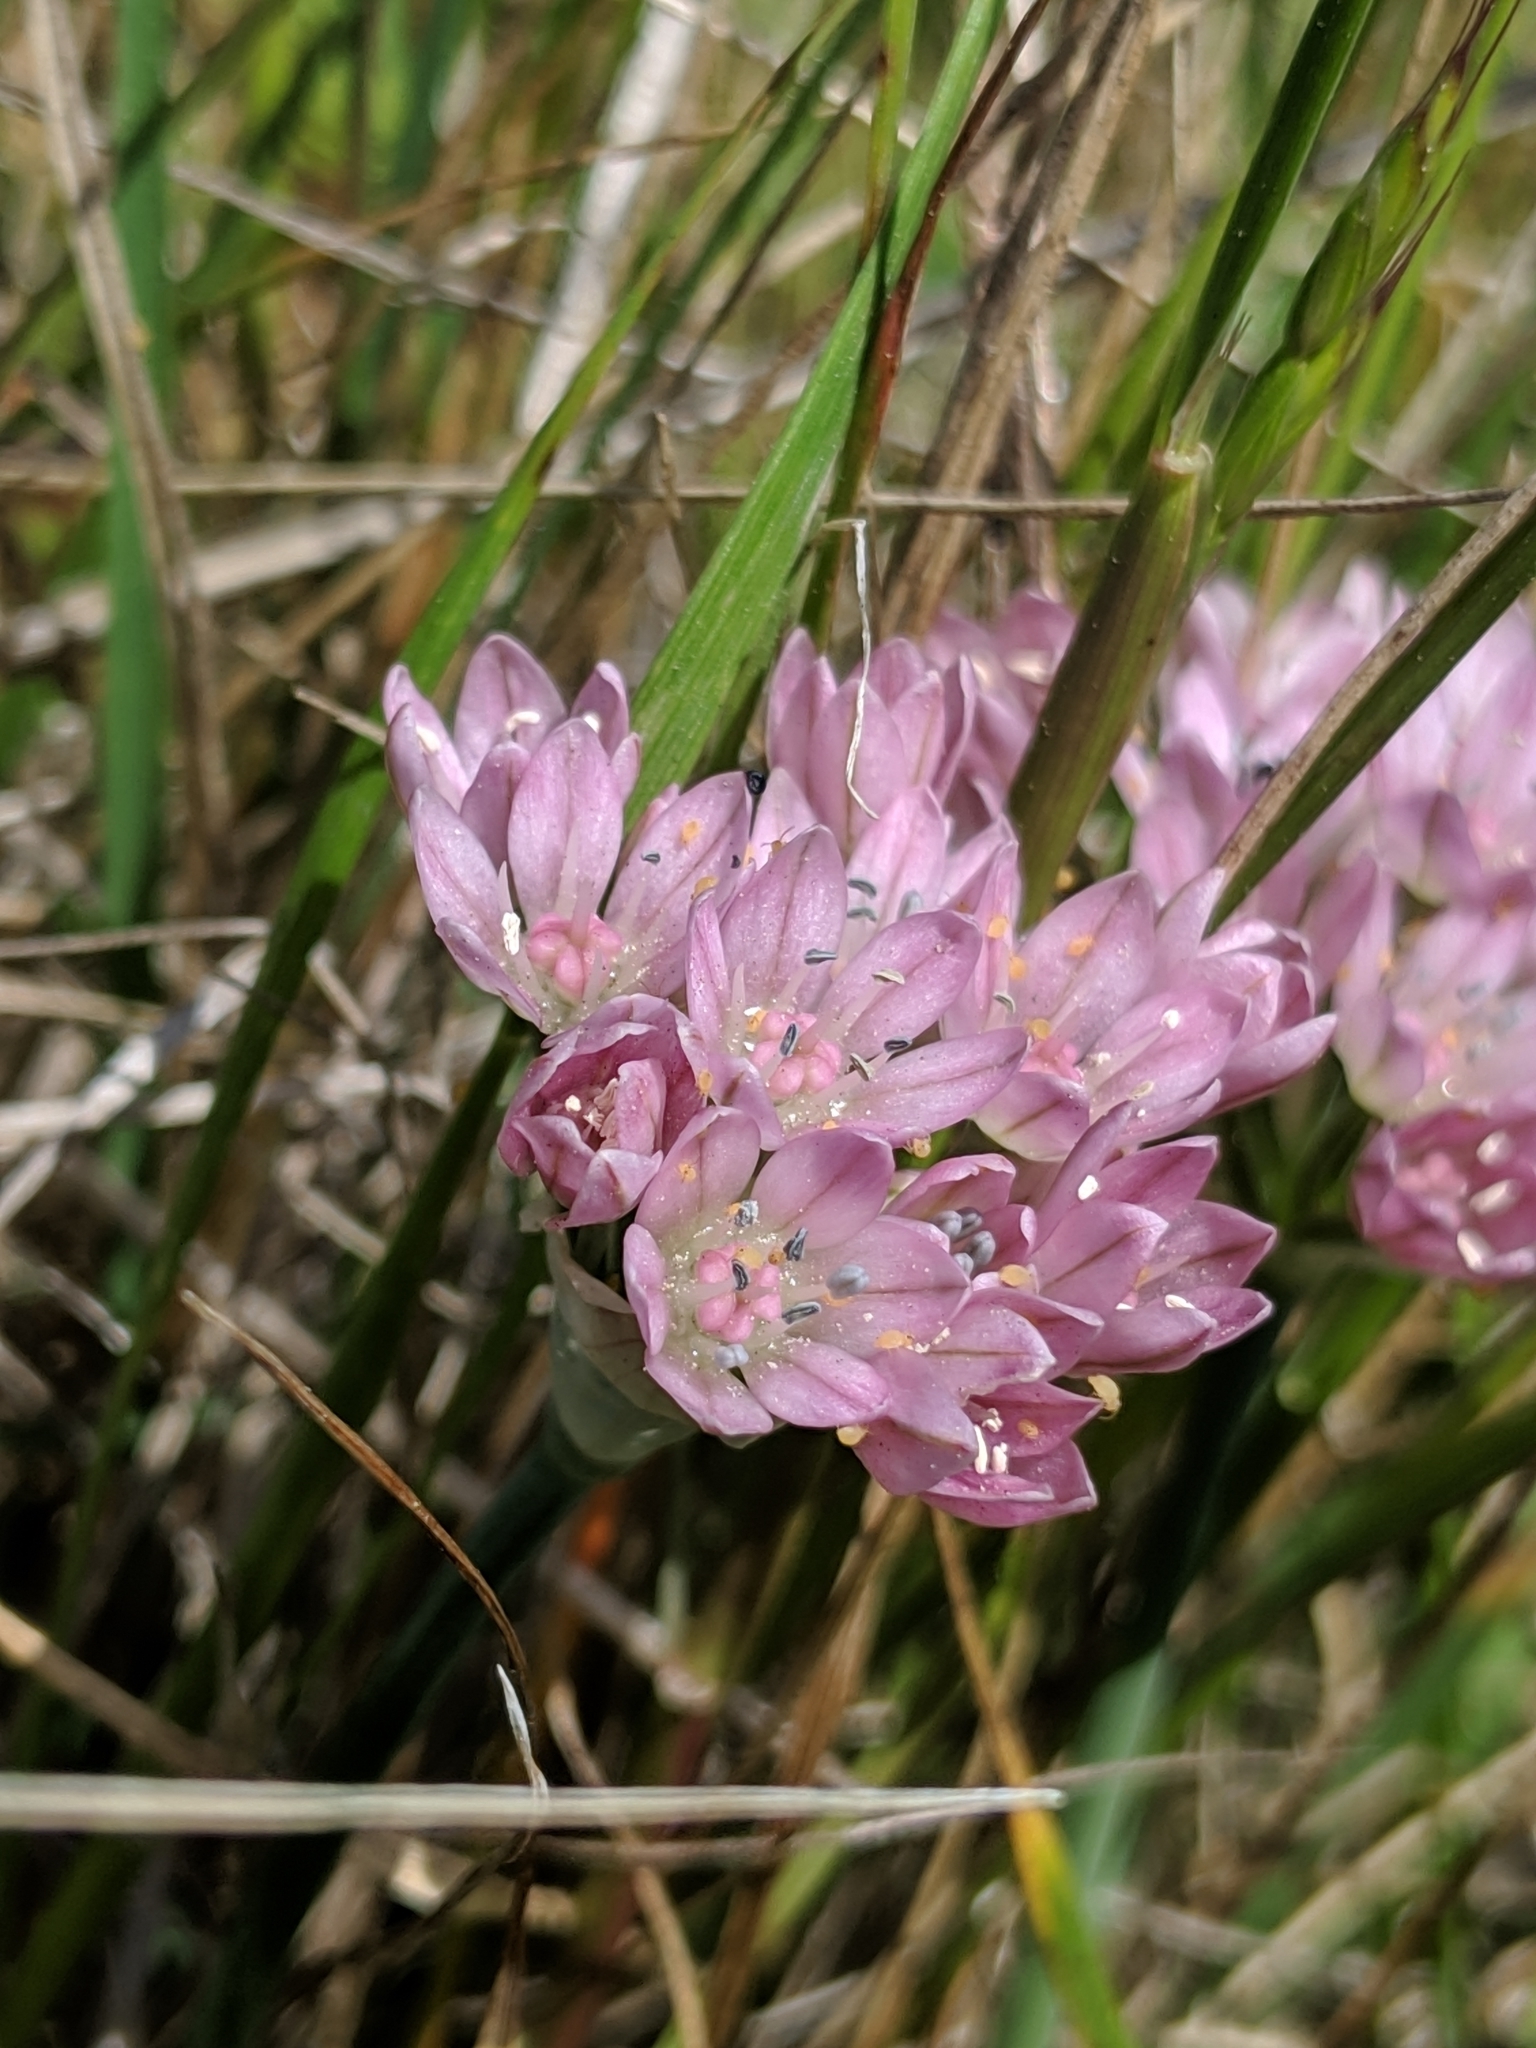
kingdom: Plantae
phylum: Tracheophyta
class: Liliopsida
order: Asparagales
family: Amaryllidaceae
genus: Allium
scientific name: Allium hickmanii
